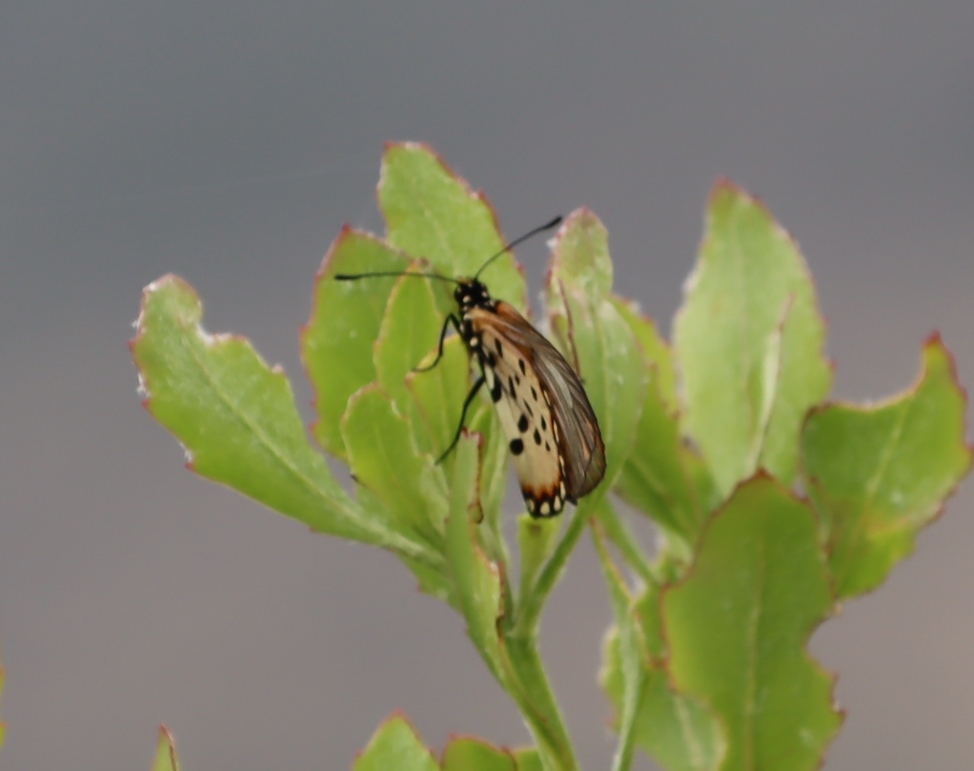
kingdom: Animalia
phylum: Arthropoda
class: Insecta
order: Lepidoptera
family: Nymphalidae
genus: Acraea
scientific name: Acraea horta
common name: Garden acraea
